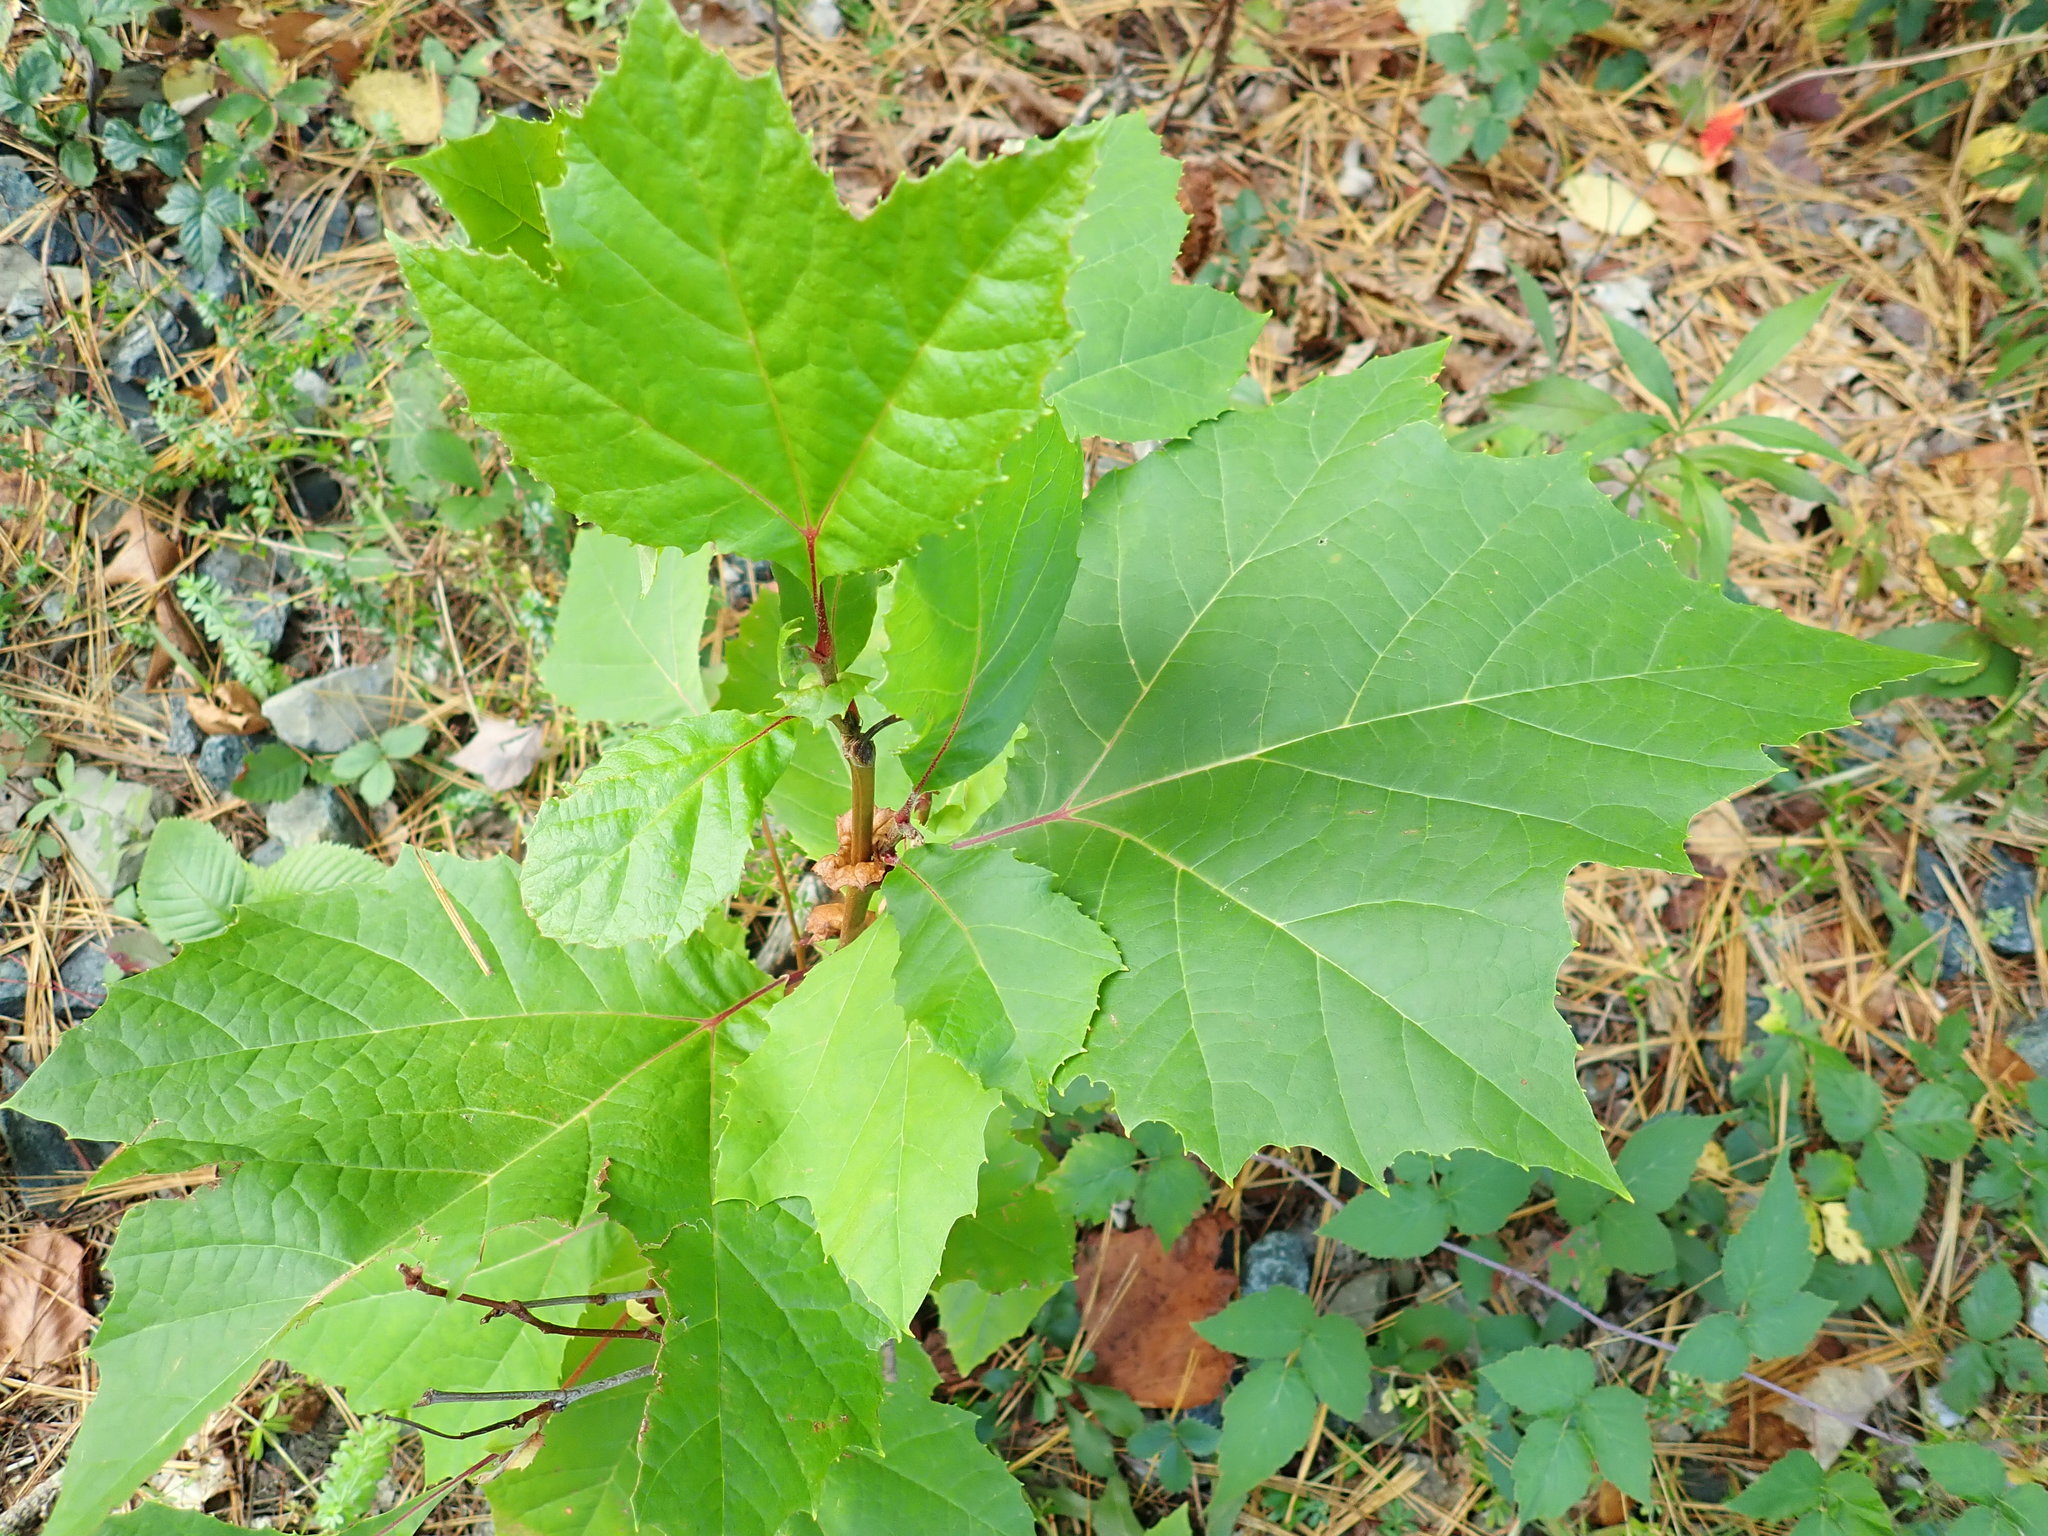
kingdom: Plantae
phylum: Tracheophyta
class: Magnoliopsida
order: Proteales
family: Platanaceae
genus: Platanus
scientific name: Platanus occidentalis
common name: American sycamore
